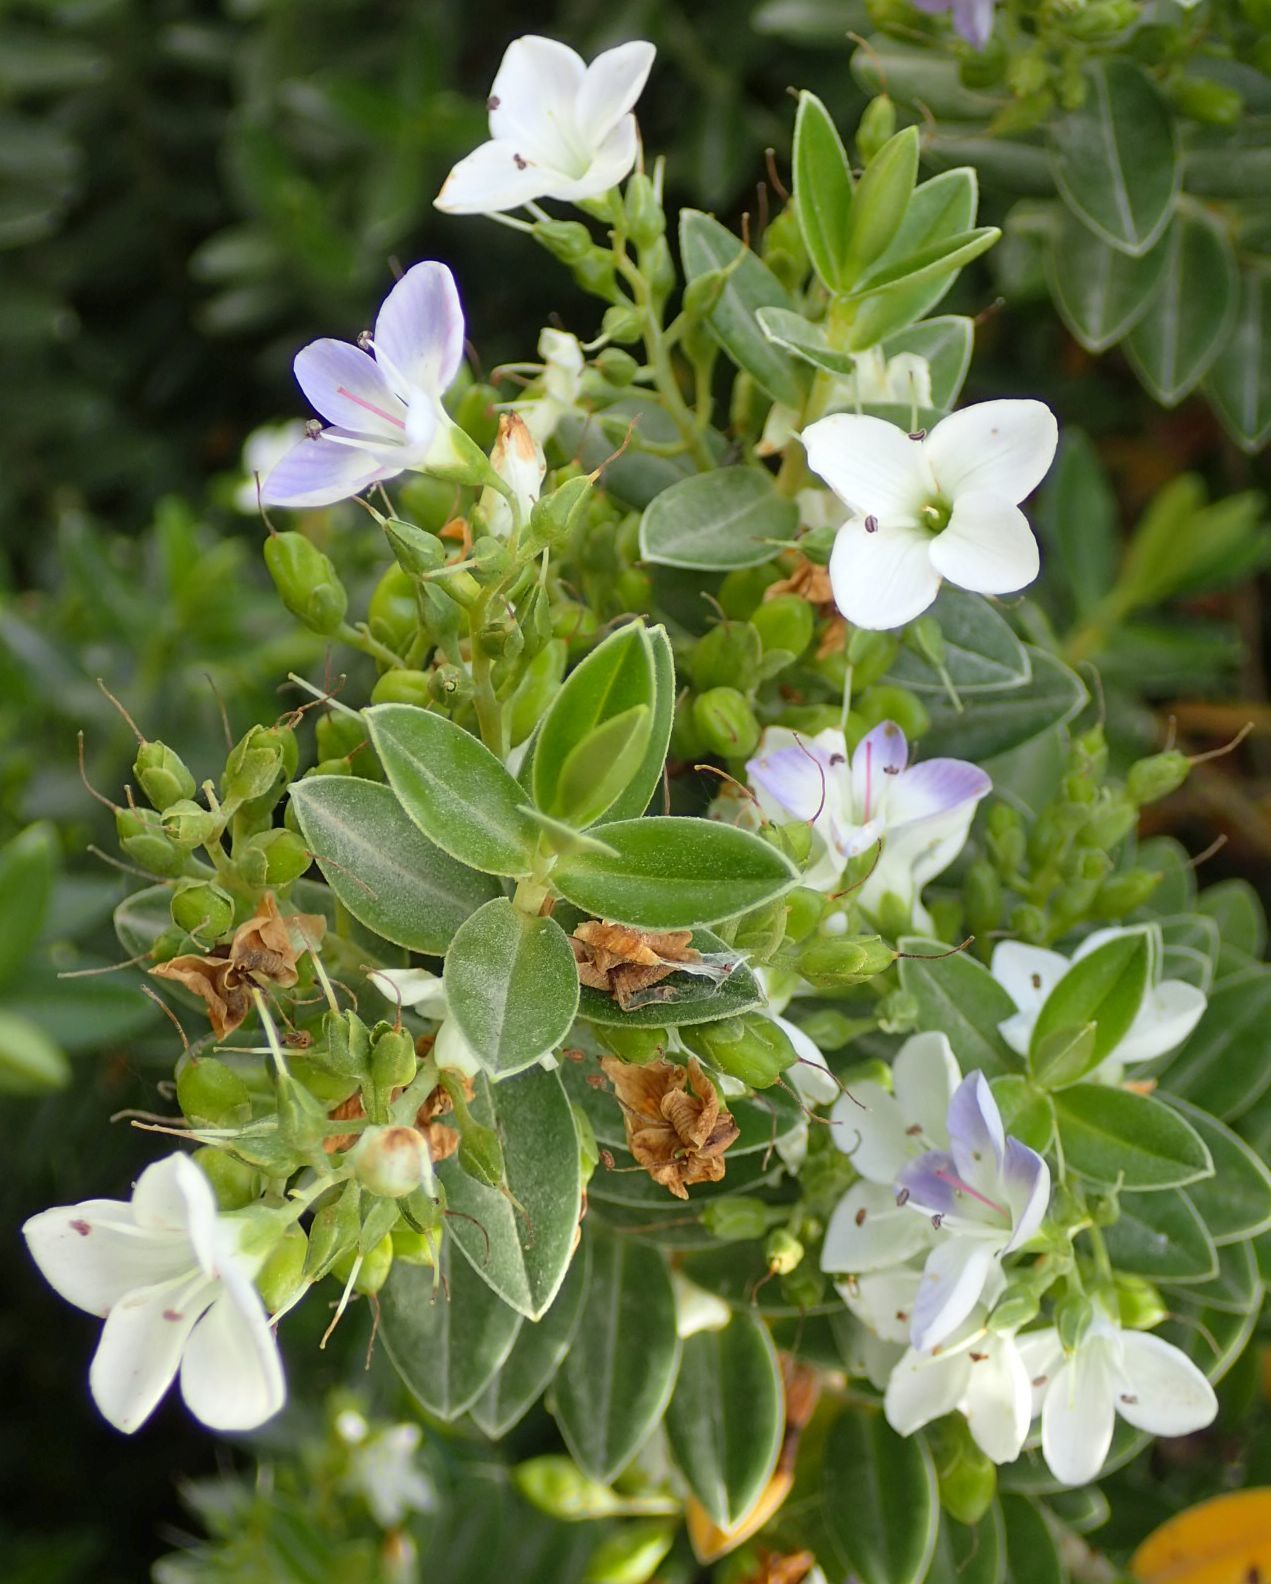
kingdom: Plantae
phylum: Tracheophyta
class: Magnoliopsida
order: Lamiales
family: Plantaginaceae
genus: Veronica
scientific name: Veronica elliptica
